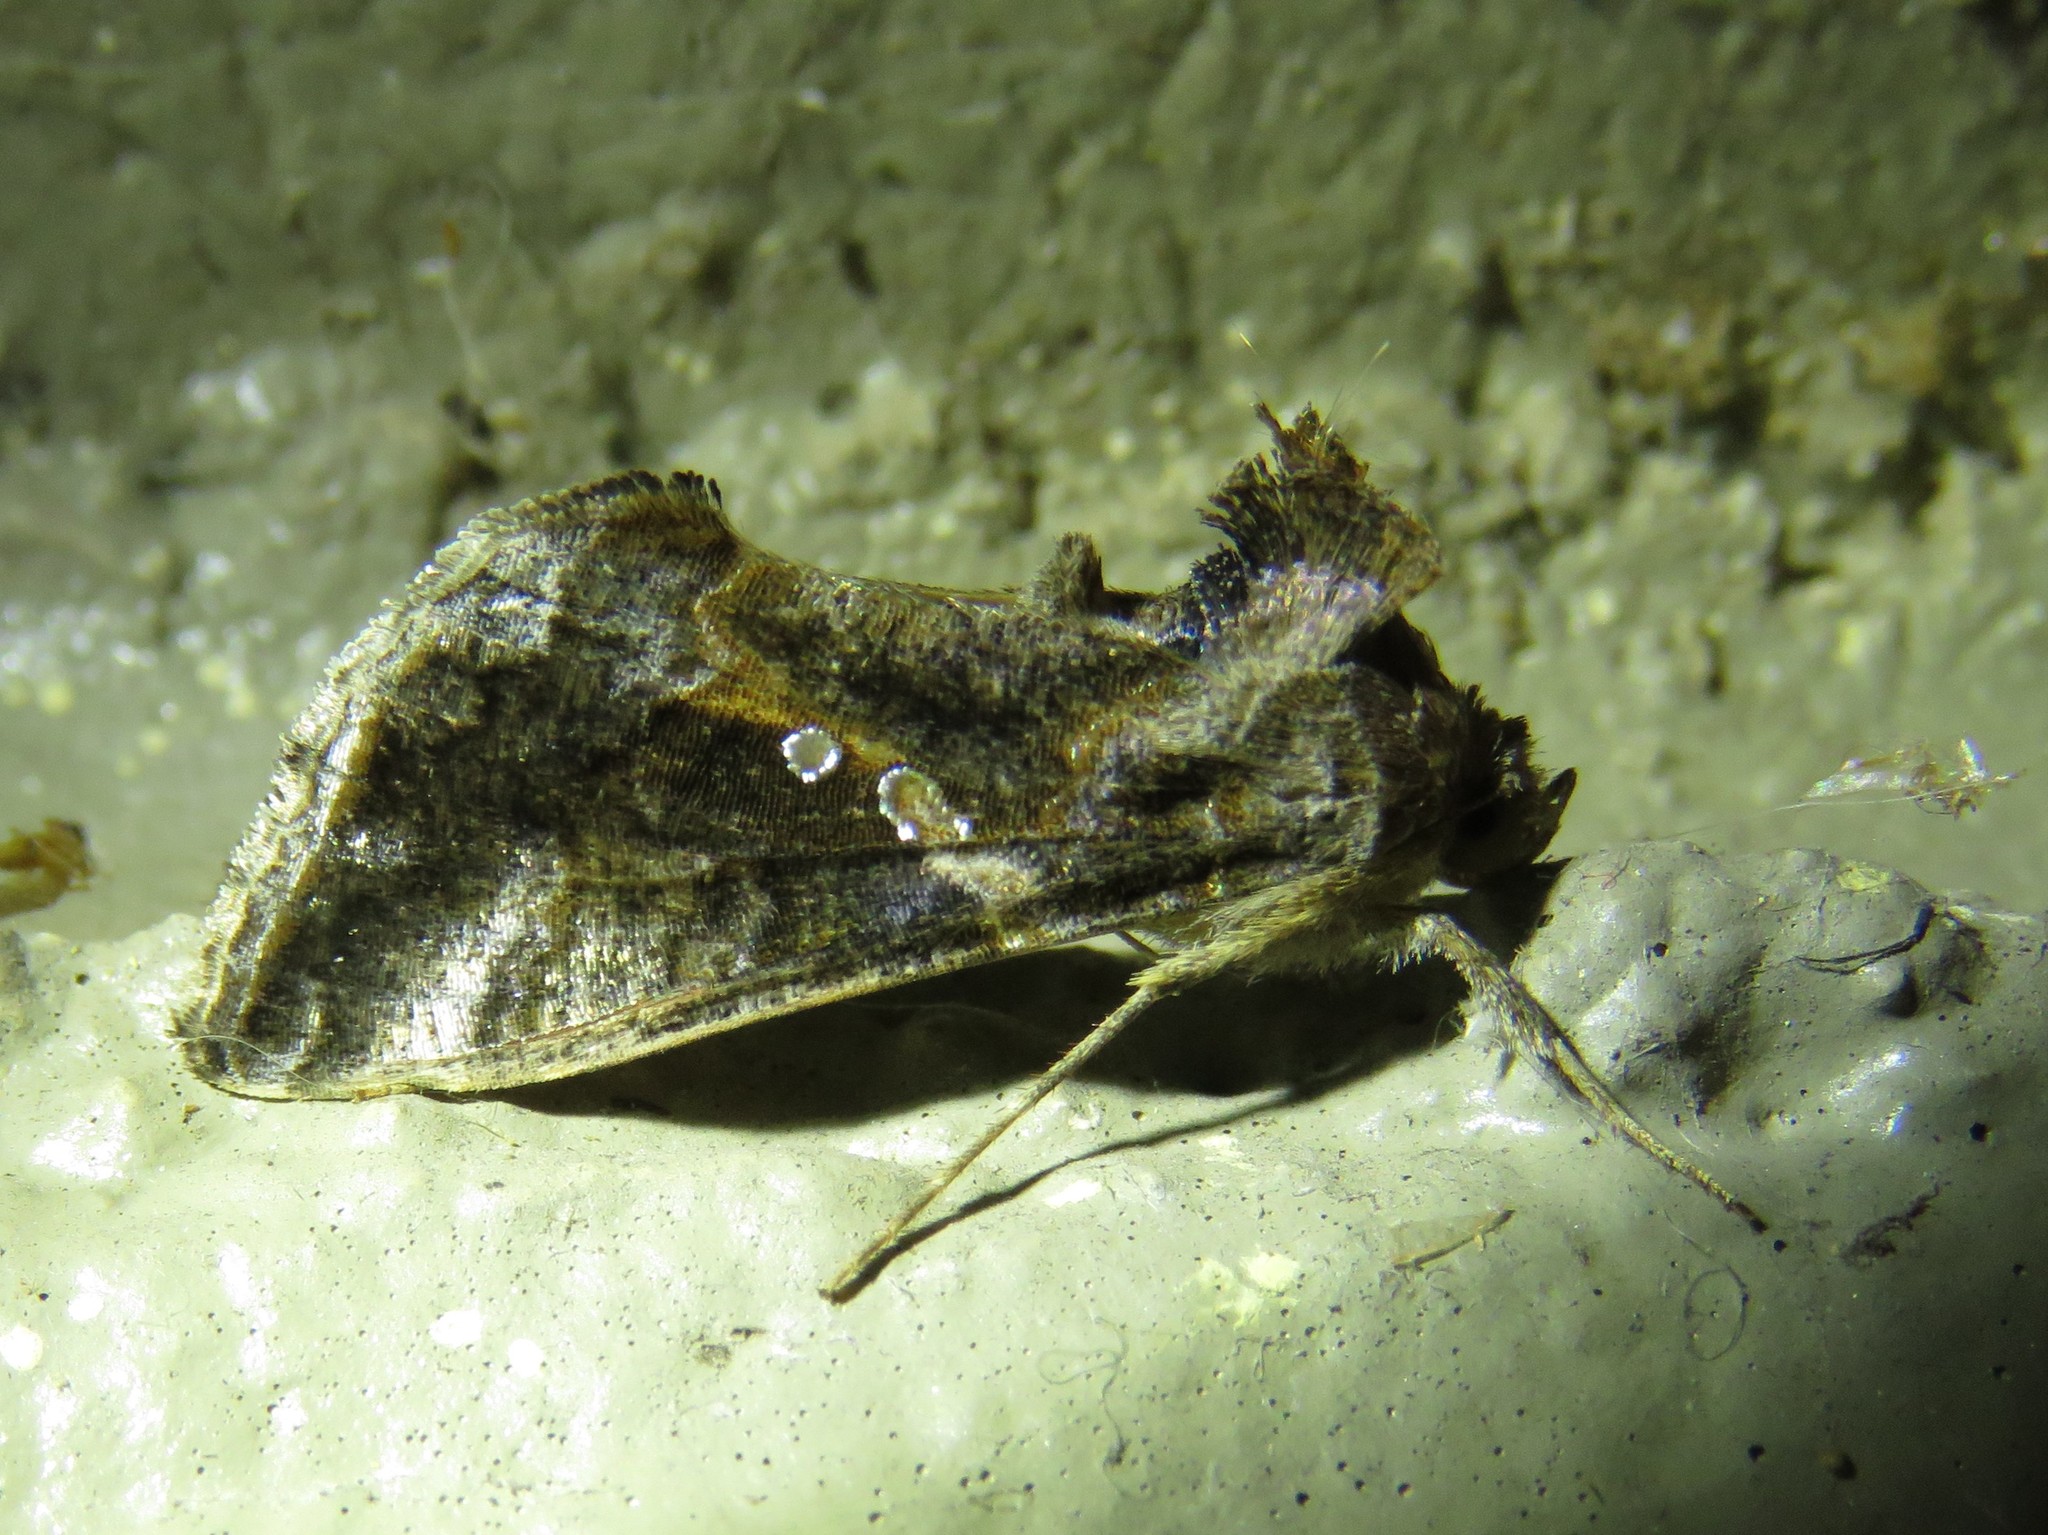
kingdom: Animalia
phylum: Arthropoda
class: Insecta
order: Lepidoptera
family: Noctuidae
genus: Chrysodeixis
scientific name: Chrysodeixis includens
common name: Cutworm moth
